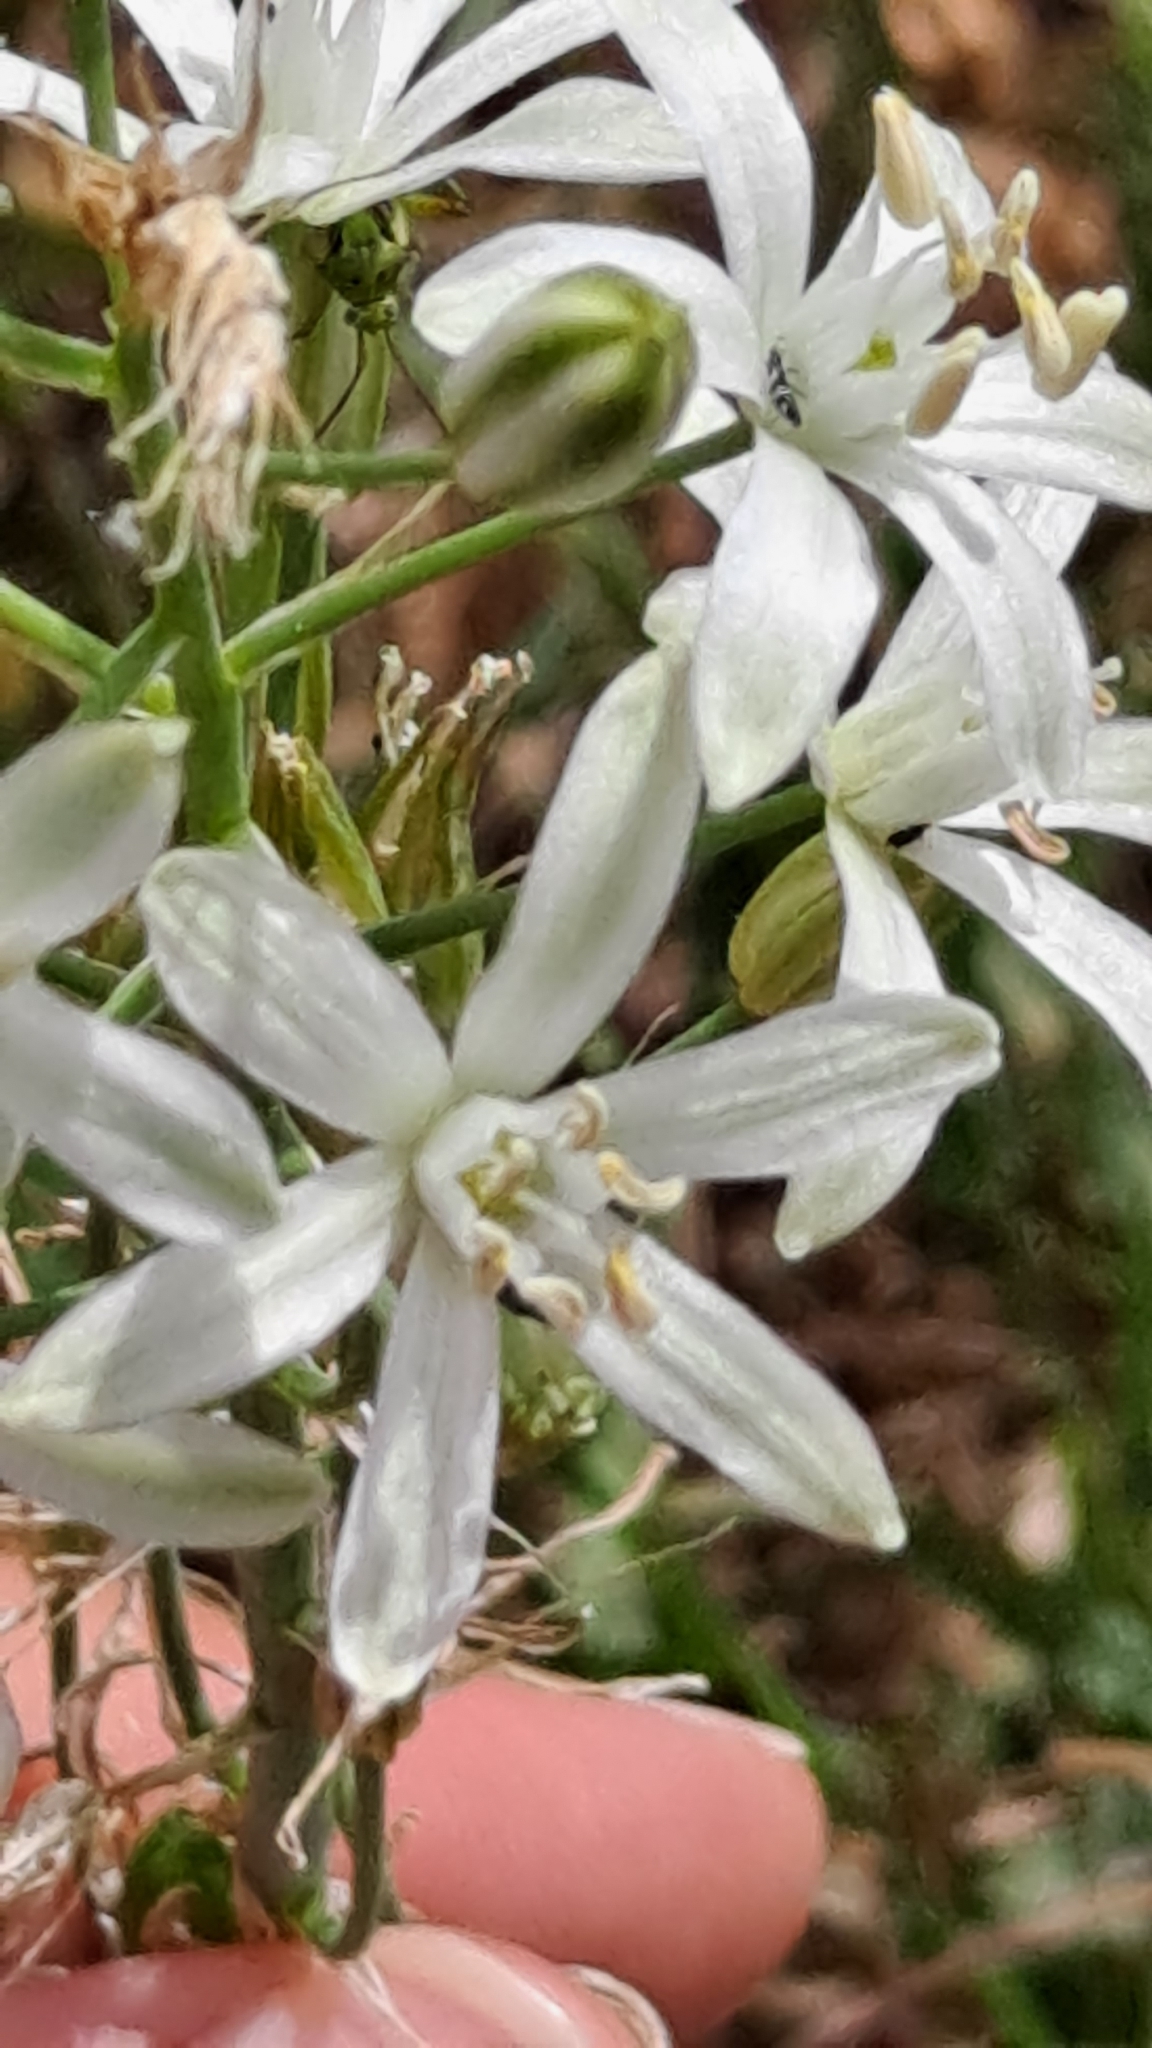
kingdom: Plantae
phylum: Tracheophyta
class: Liliopsida
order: Asparagales
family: Asparagaceae
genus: Ornithogalum
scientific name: Ornithogalum narbonense
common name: Bath-asparagus
